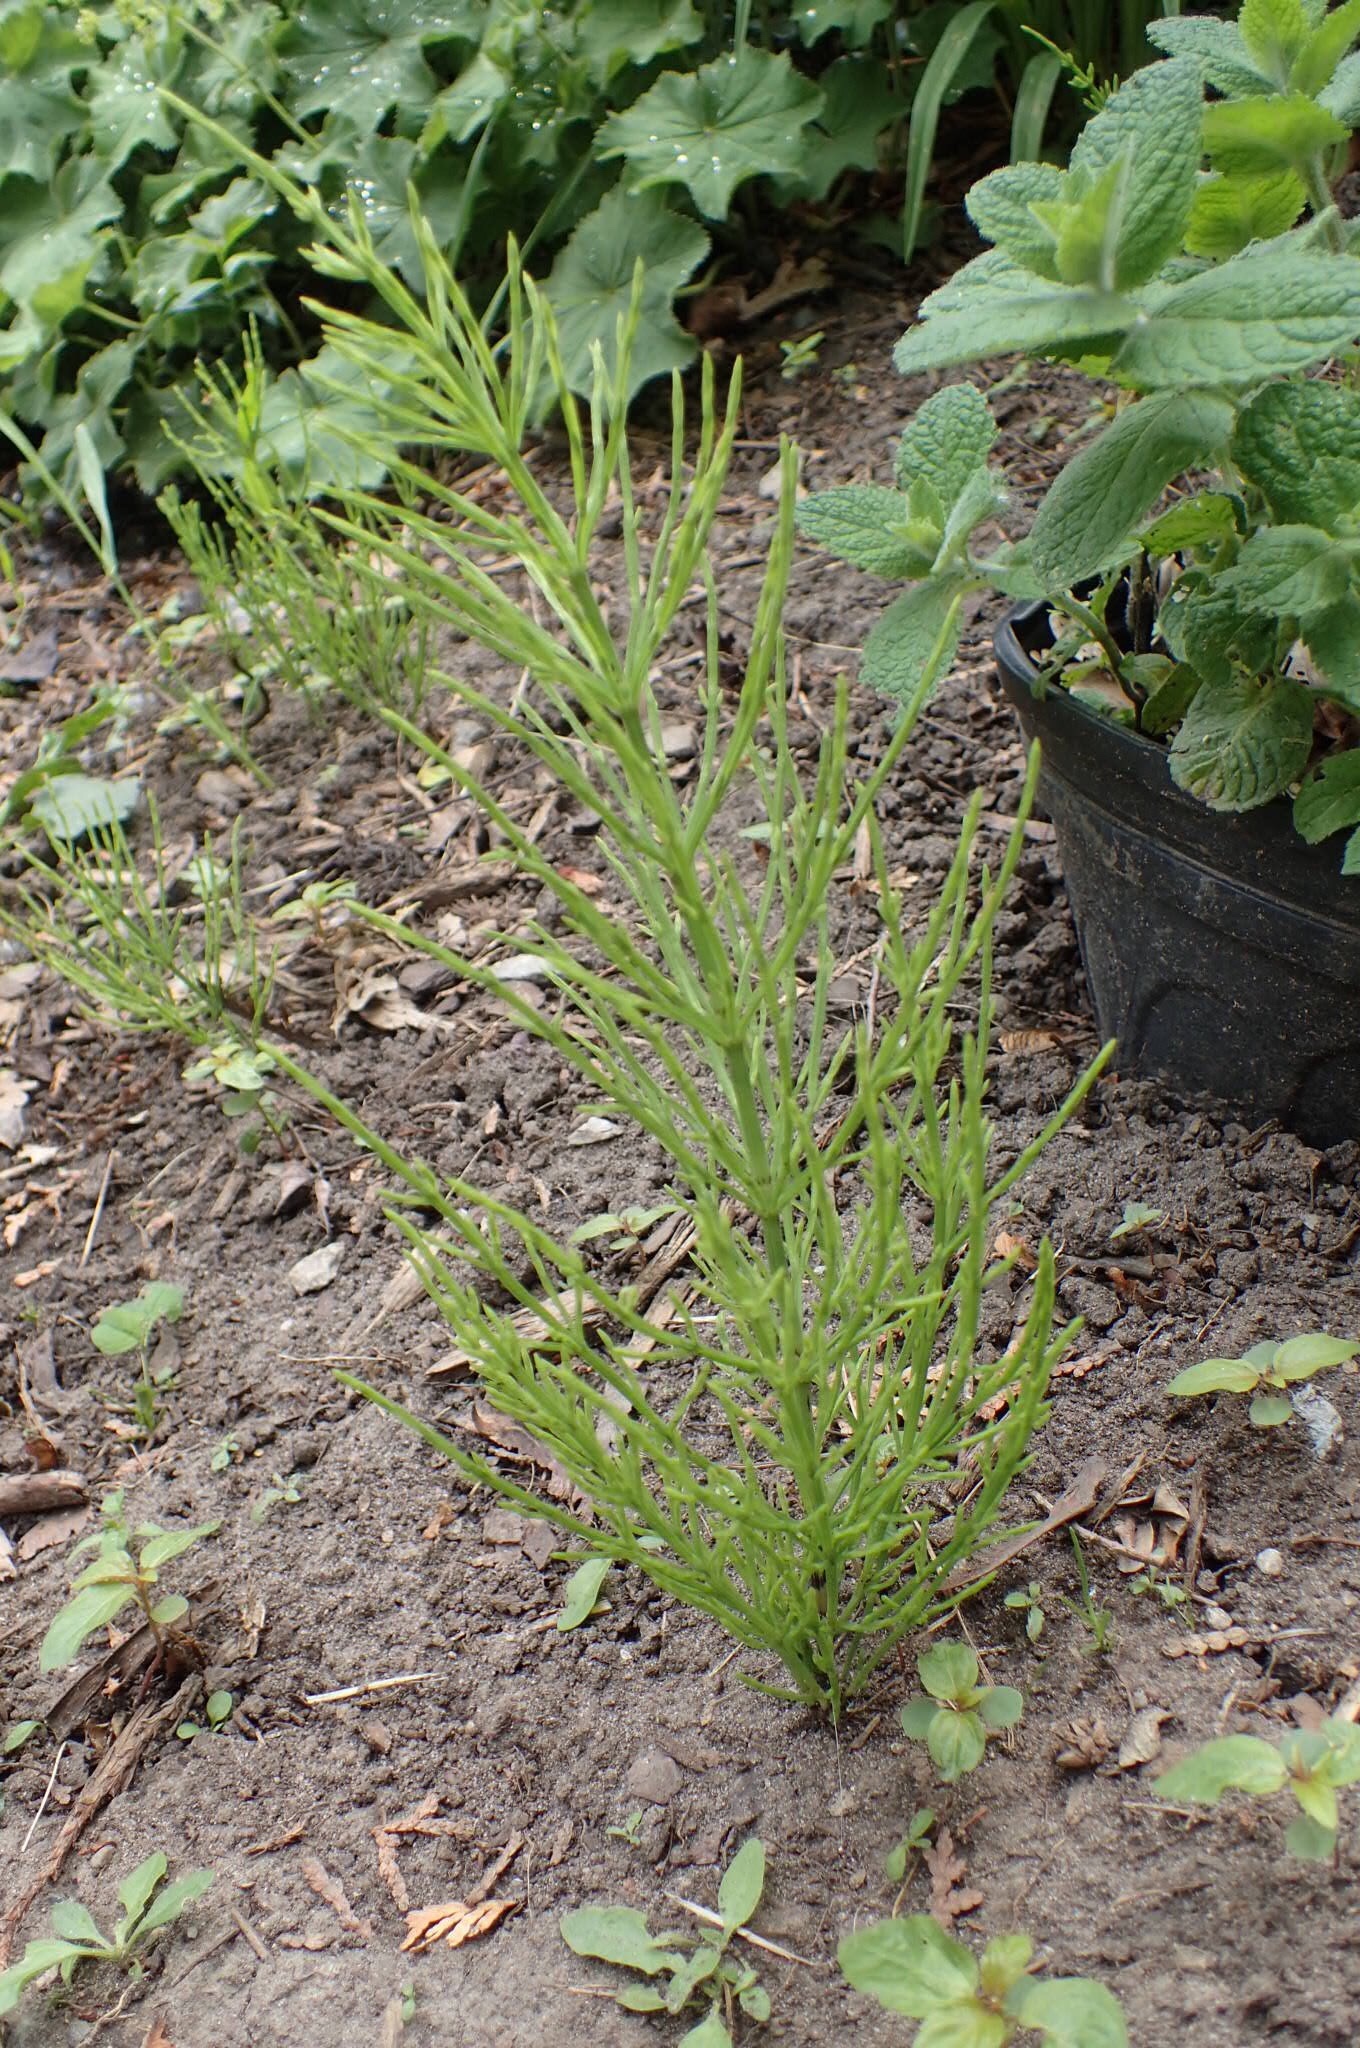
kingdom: Plantae
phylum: Tracheophyta
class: Polypodiopsida
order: Equisetales
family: Equisetaceae
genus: Equisetum
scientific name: Equisetum arvense
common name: Field horsetail
